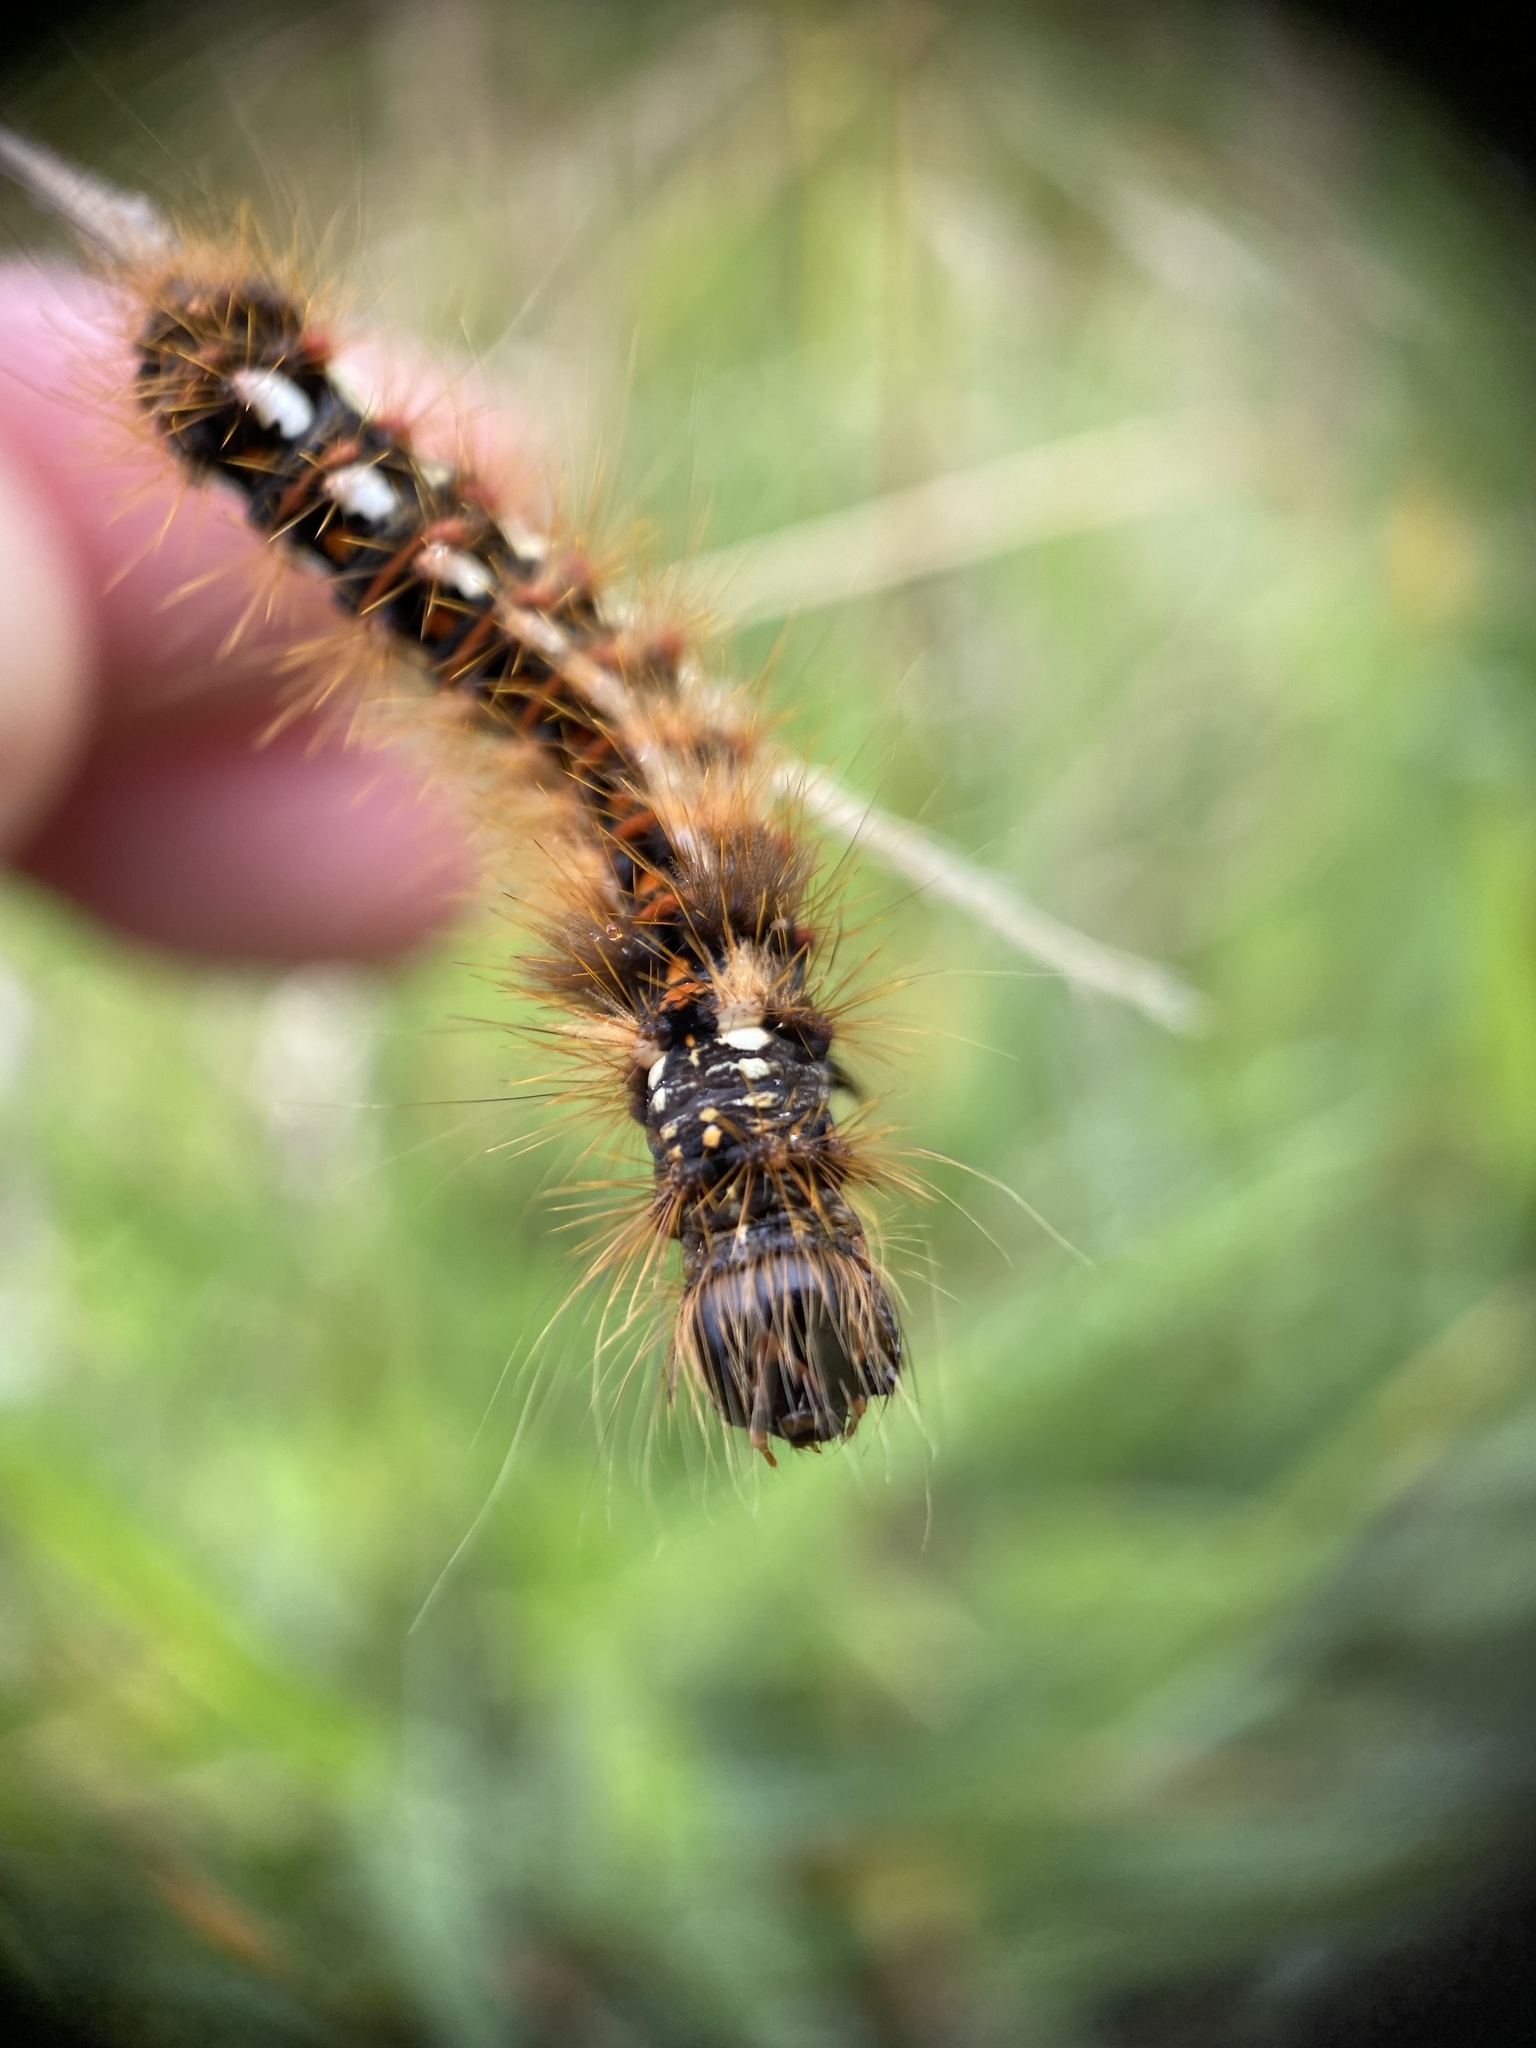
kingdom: Animalia
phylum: Arthropoda
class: Insecta
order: Lepidoptera
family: Noctuidae
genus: Acronicta
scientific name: Acronicta rumicis
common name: Knot grass
